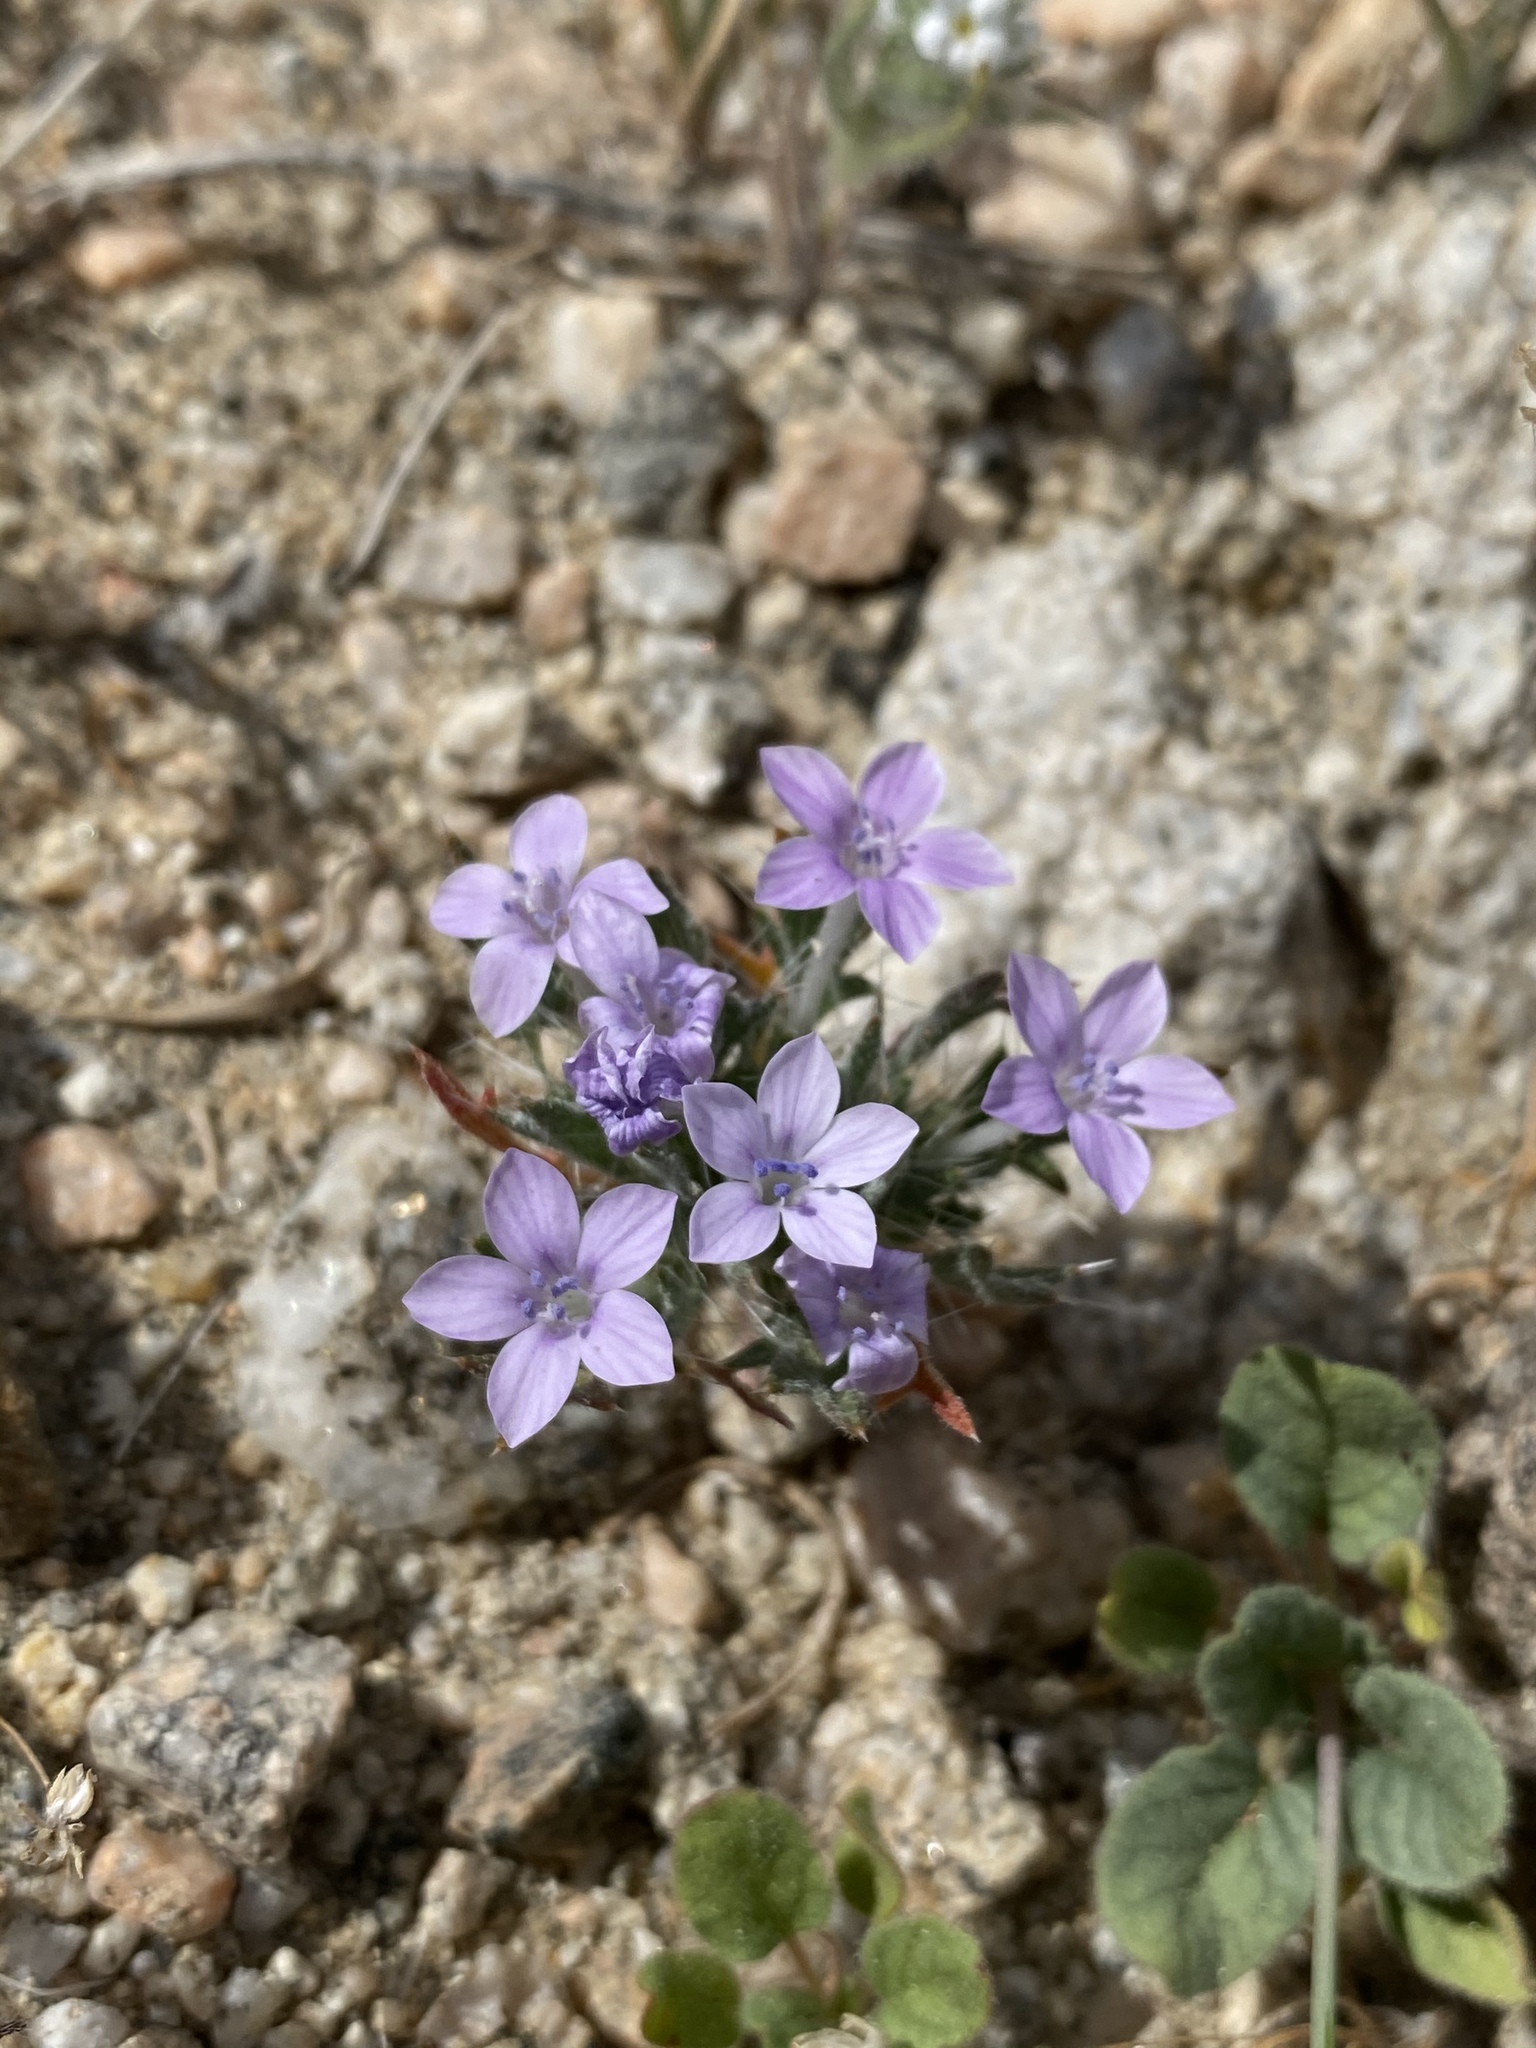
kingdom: Plantae
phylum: Tracheophyta
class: Magnoliopsida
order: Ericales
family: Polemoniaceae
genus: Langloisia
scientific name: Langloisia setosissima
